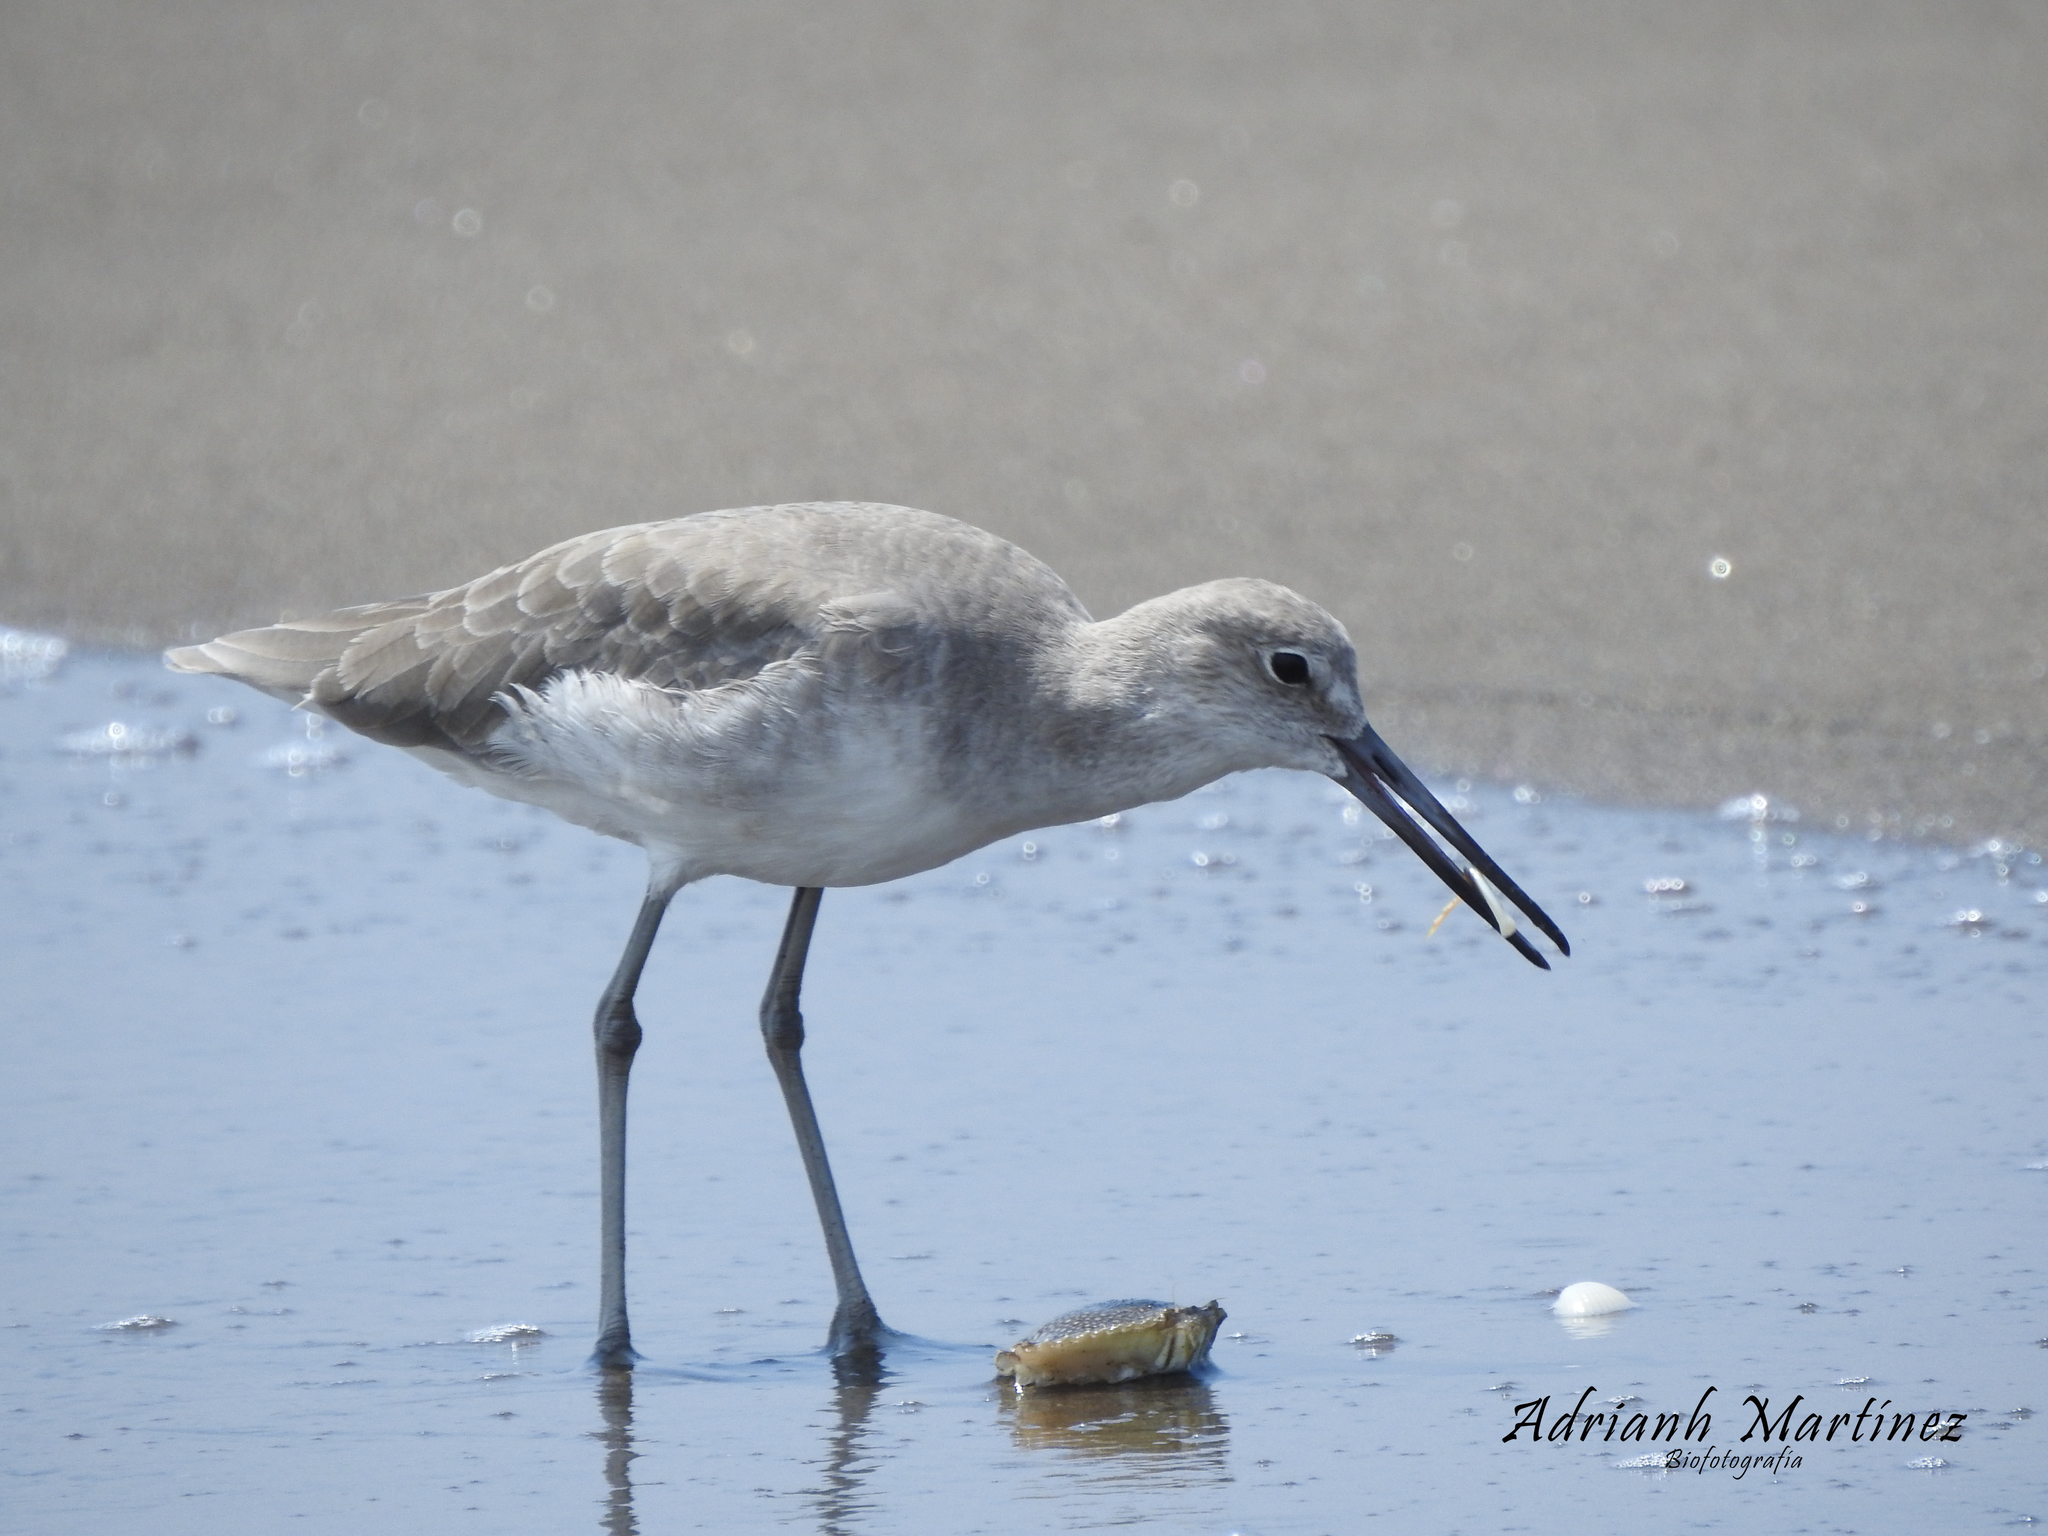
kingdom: Animalia
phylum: Chordata
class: Aves
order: Charadriiformes
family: Scolopacidae
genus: Tringa
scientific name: Tringa semipalmata
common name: Willet
